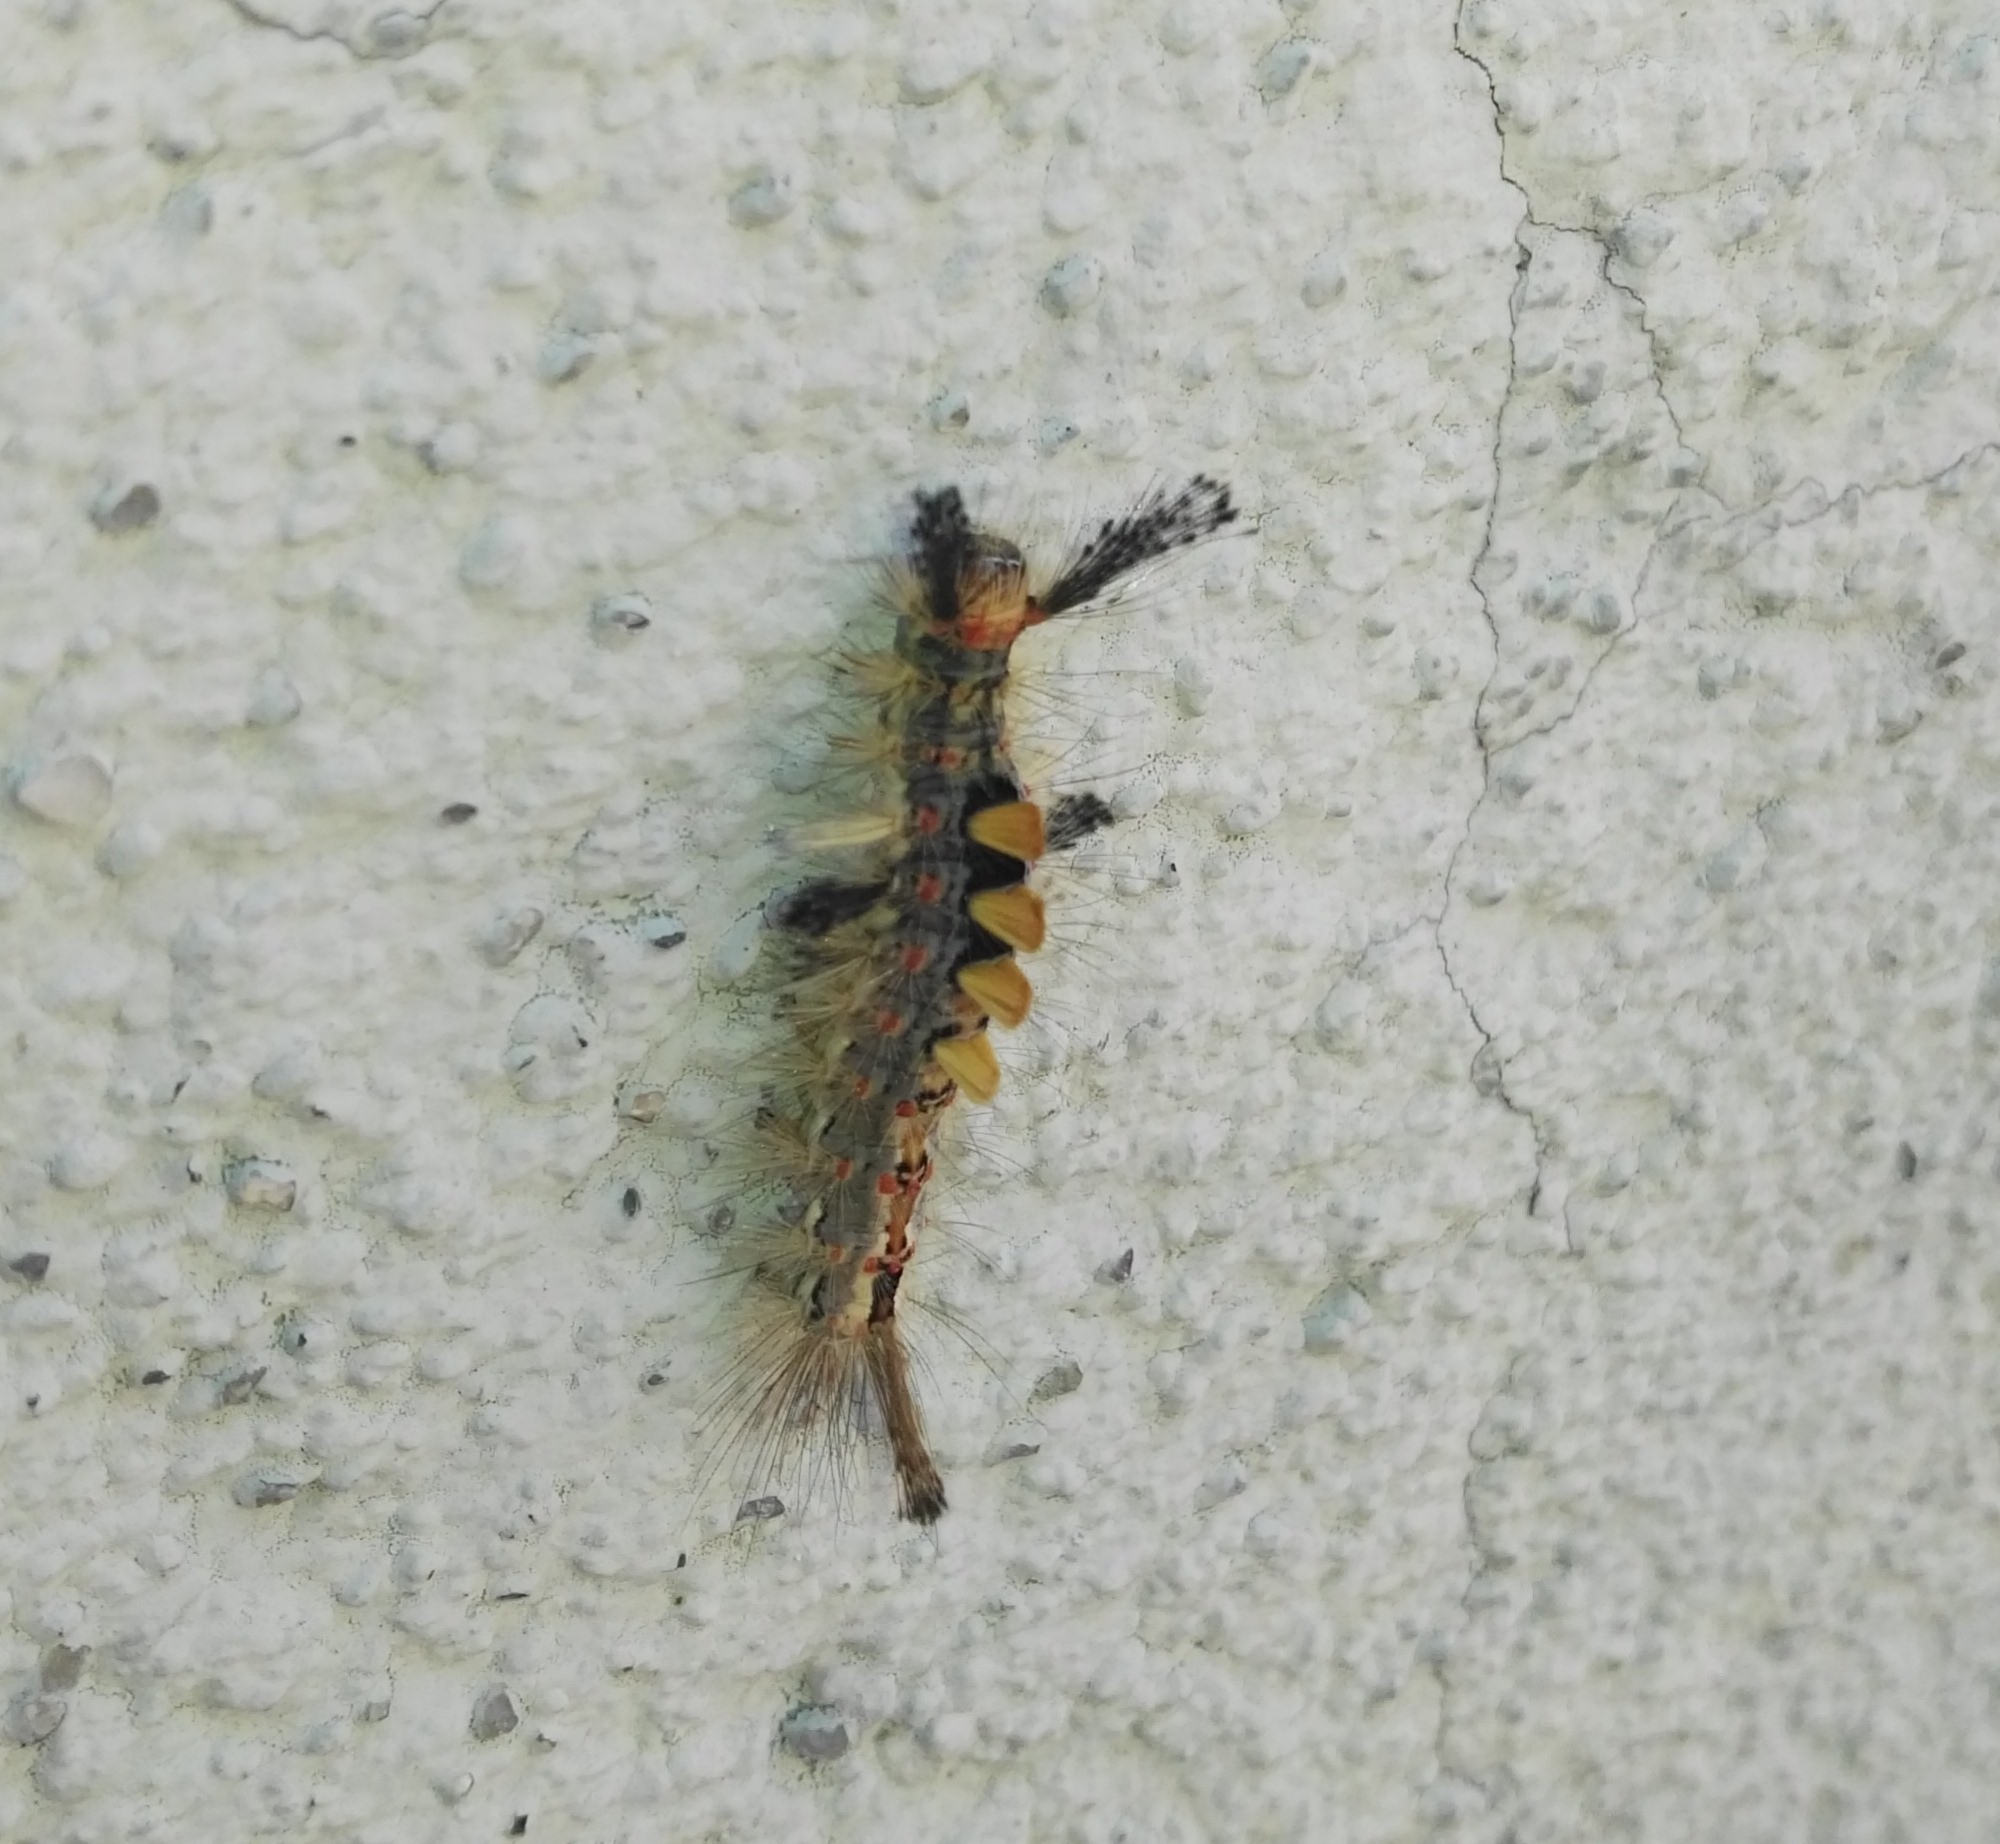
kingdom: Animalia
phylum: Arthropoda
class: Insecta
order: Lepidoptera
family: Erebidae
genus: Orgyia
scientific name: Orgyia antiqua
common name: Vapourer
